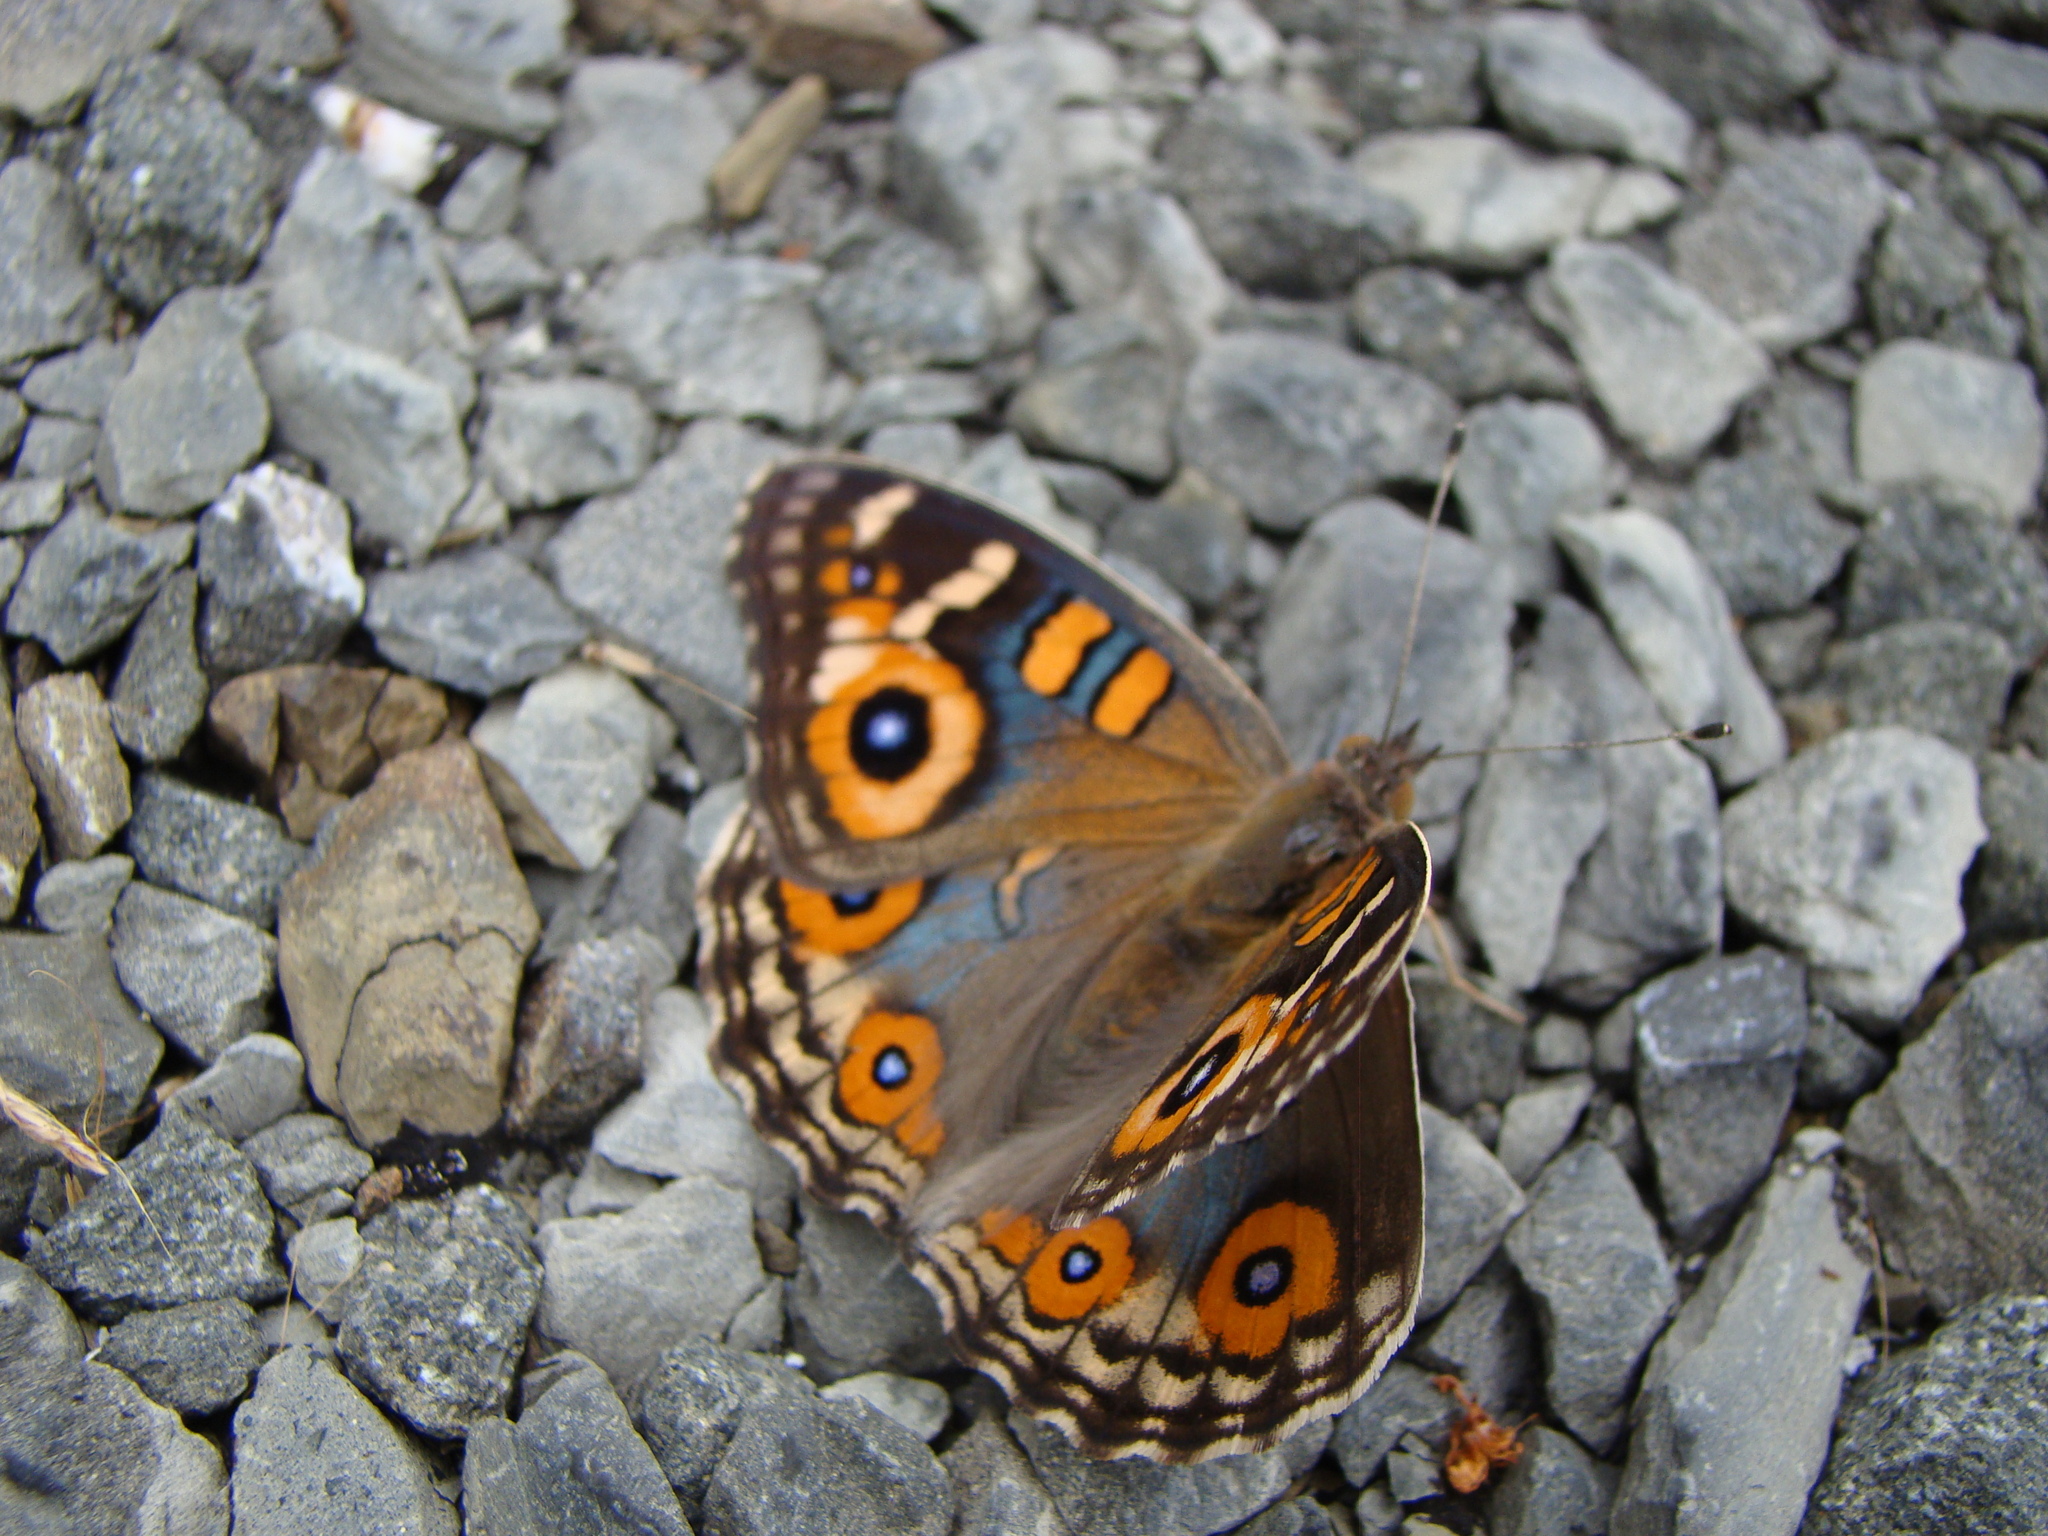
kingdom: Animalia
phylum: Arthropoda
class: Insecta
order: Lepidoptera
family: Nymphalidae
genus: Junonia
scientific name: Junonia villida
